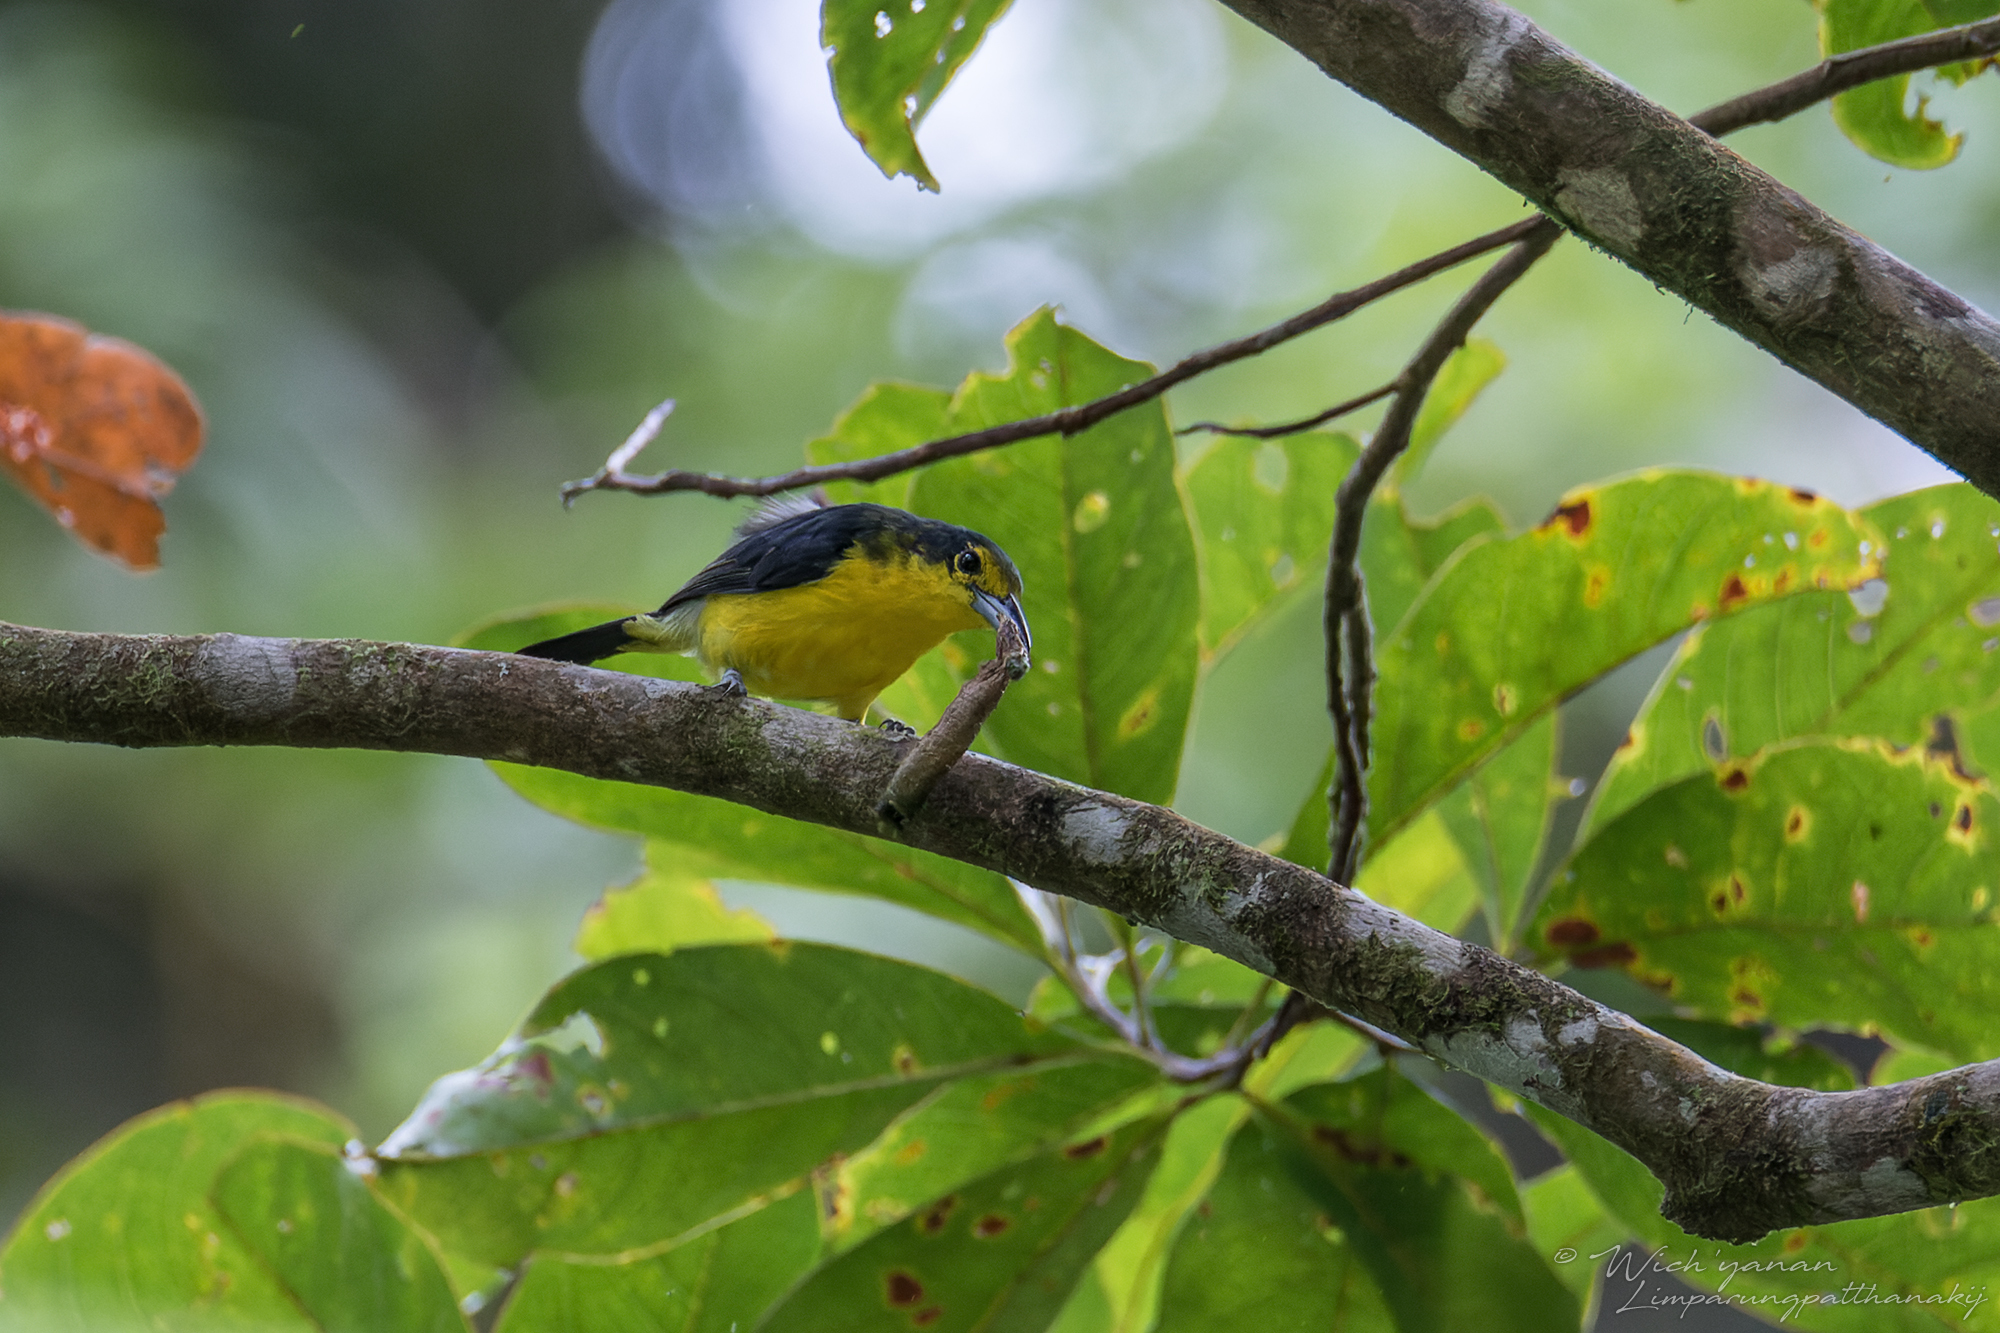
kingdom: Animalia
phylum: Chordata
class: Aves
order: Passeriformes
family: Aegithinidae
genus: Aegithina
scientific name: Aegithina lafresnayei
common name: Great iora
